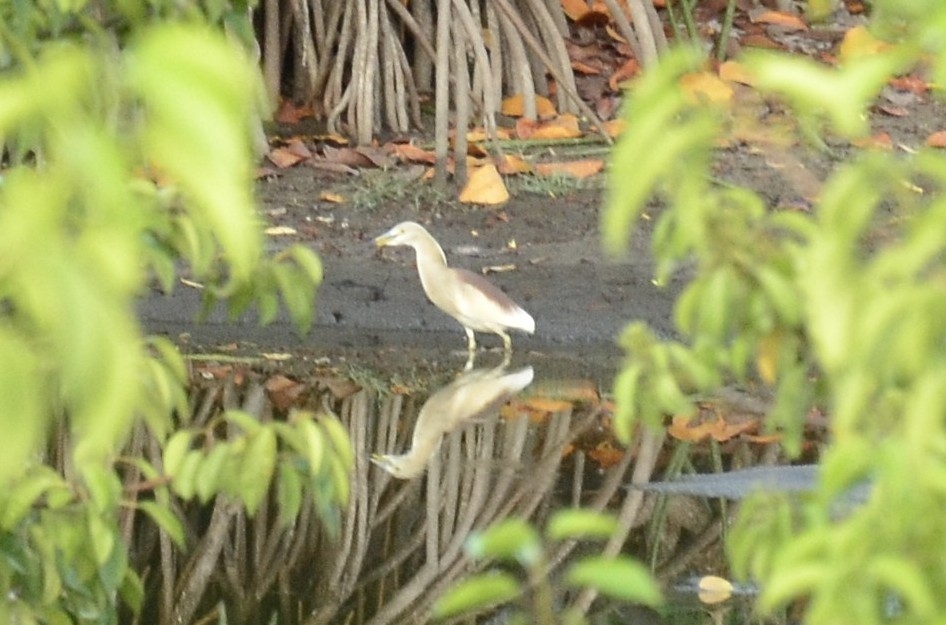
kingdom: Animalia
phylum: Chordata
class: Aves
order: Pelecaniformes
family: Ardeidae
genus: Ardeola
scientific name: Ardeola grayii
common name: Indian pond heron
